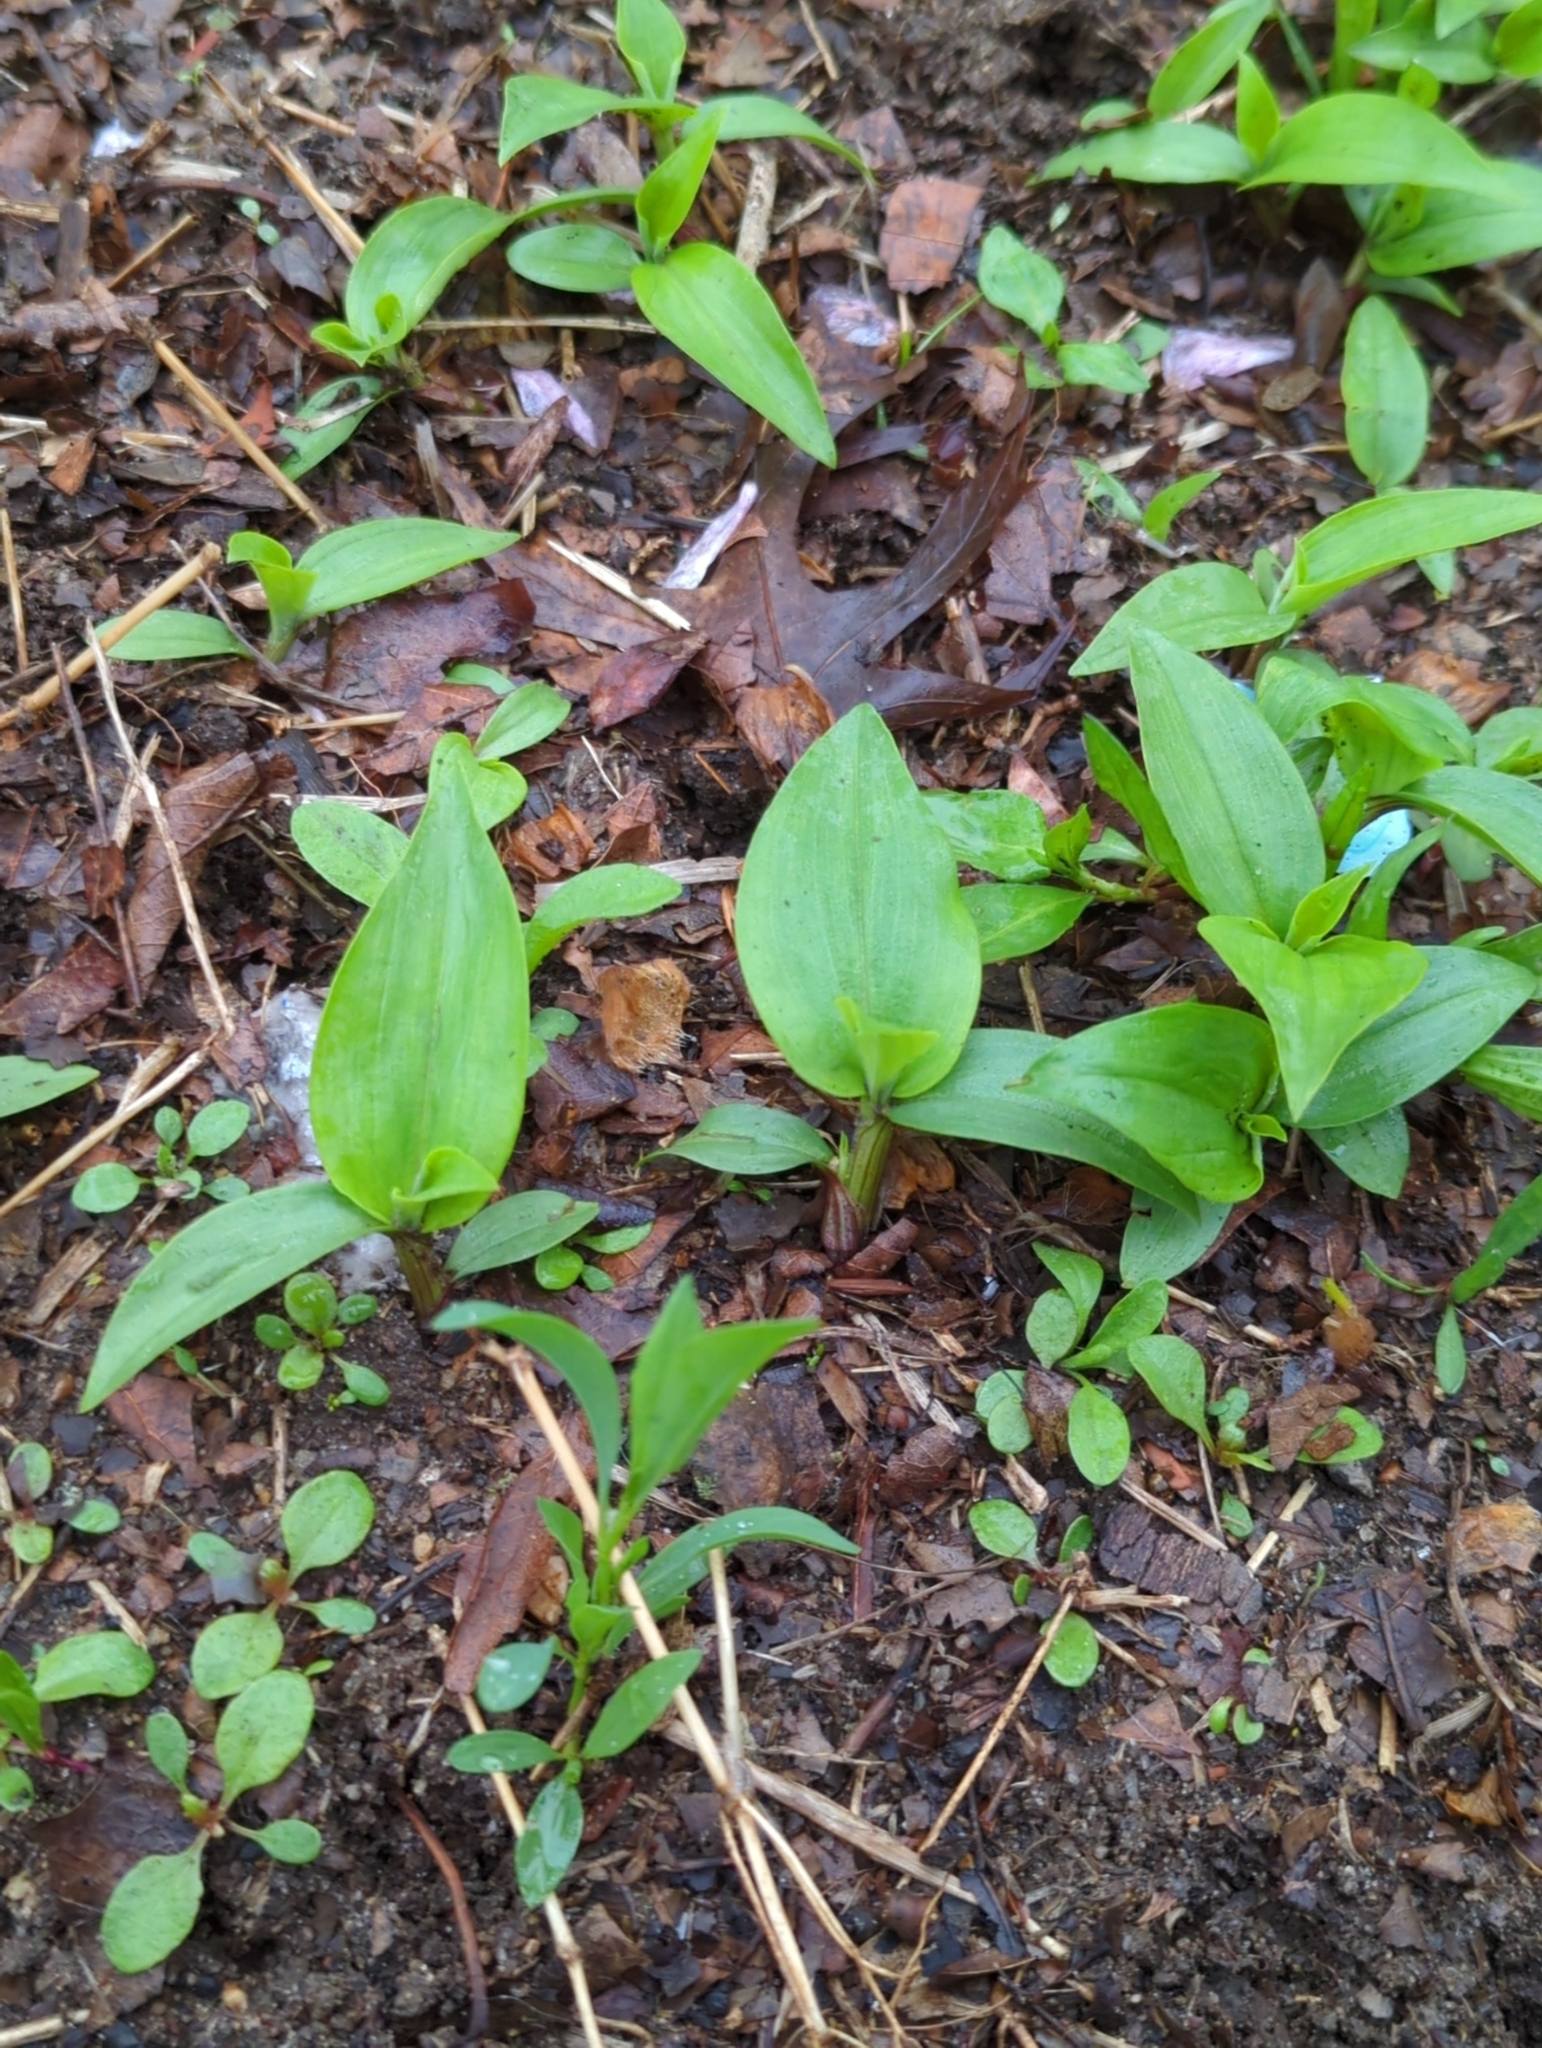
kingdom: Plantae
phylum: Tracheophyta
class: Liliopsida
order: Commelinales
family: Commelinaceae
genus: Commelina
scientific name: Commelina communis
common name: Asiatic dayflower
